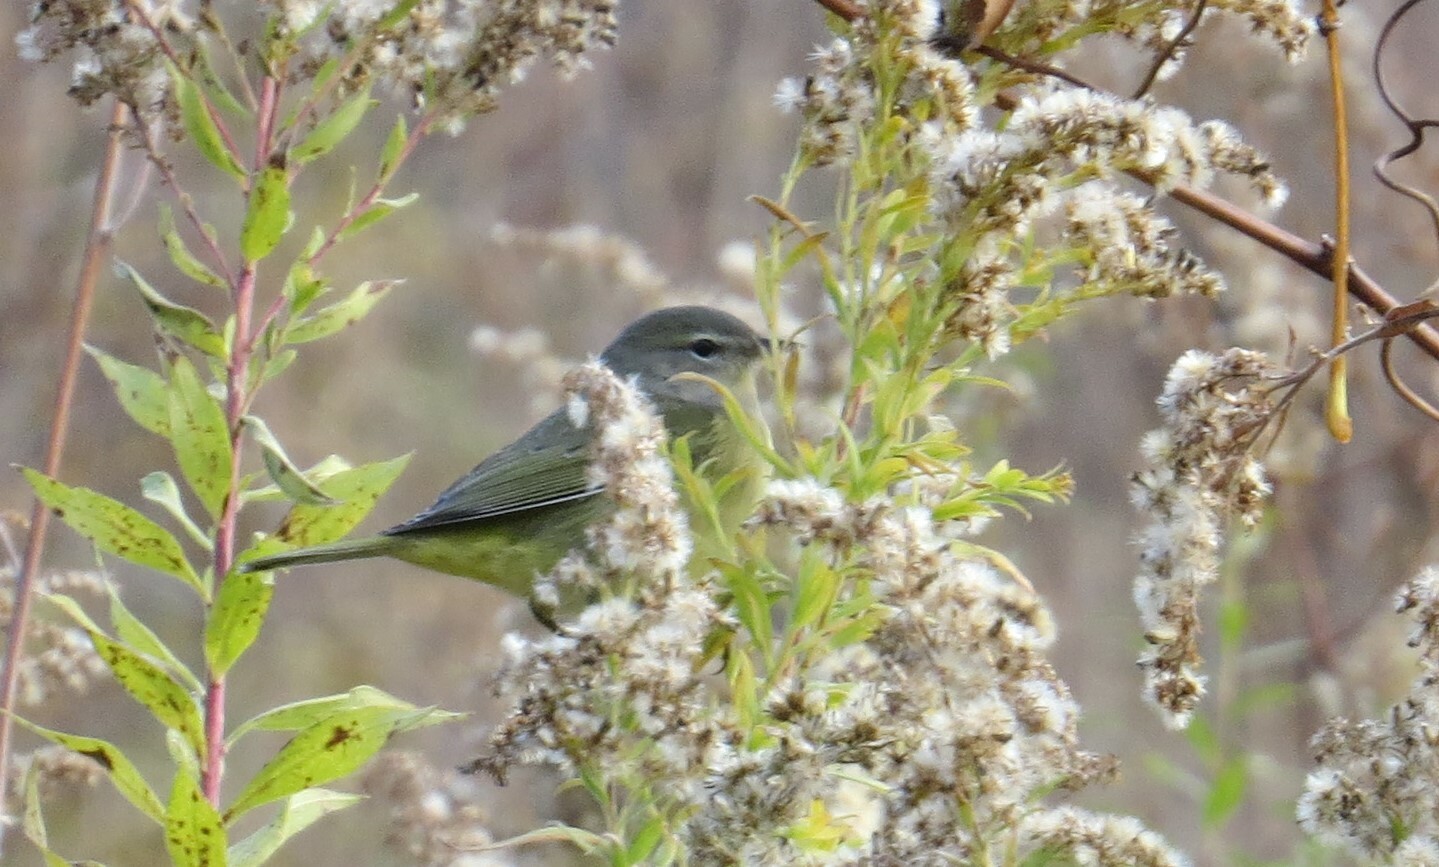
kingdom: Animalia
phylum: Chordata
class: Aves
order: Passeriformes
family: Parulidae
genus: Leiothlypis
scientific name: Leiothlypis celata
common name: Orange-crowned warbler
